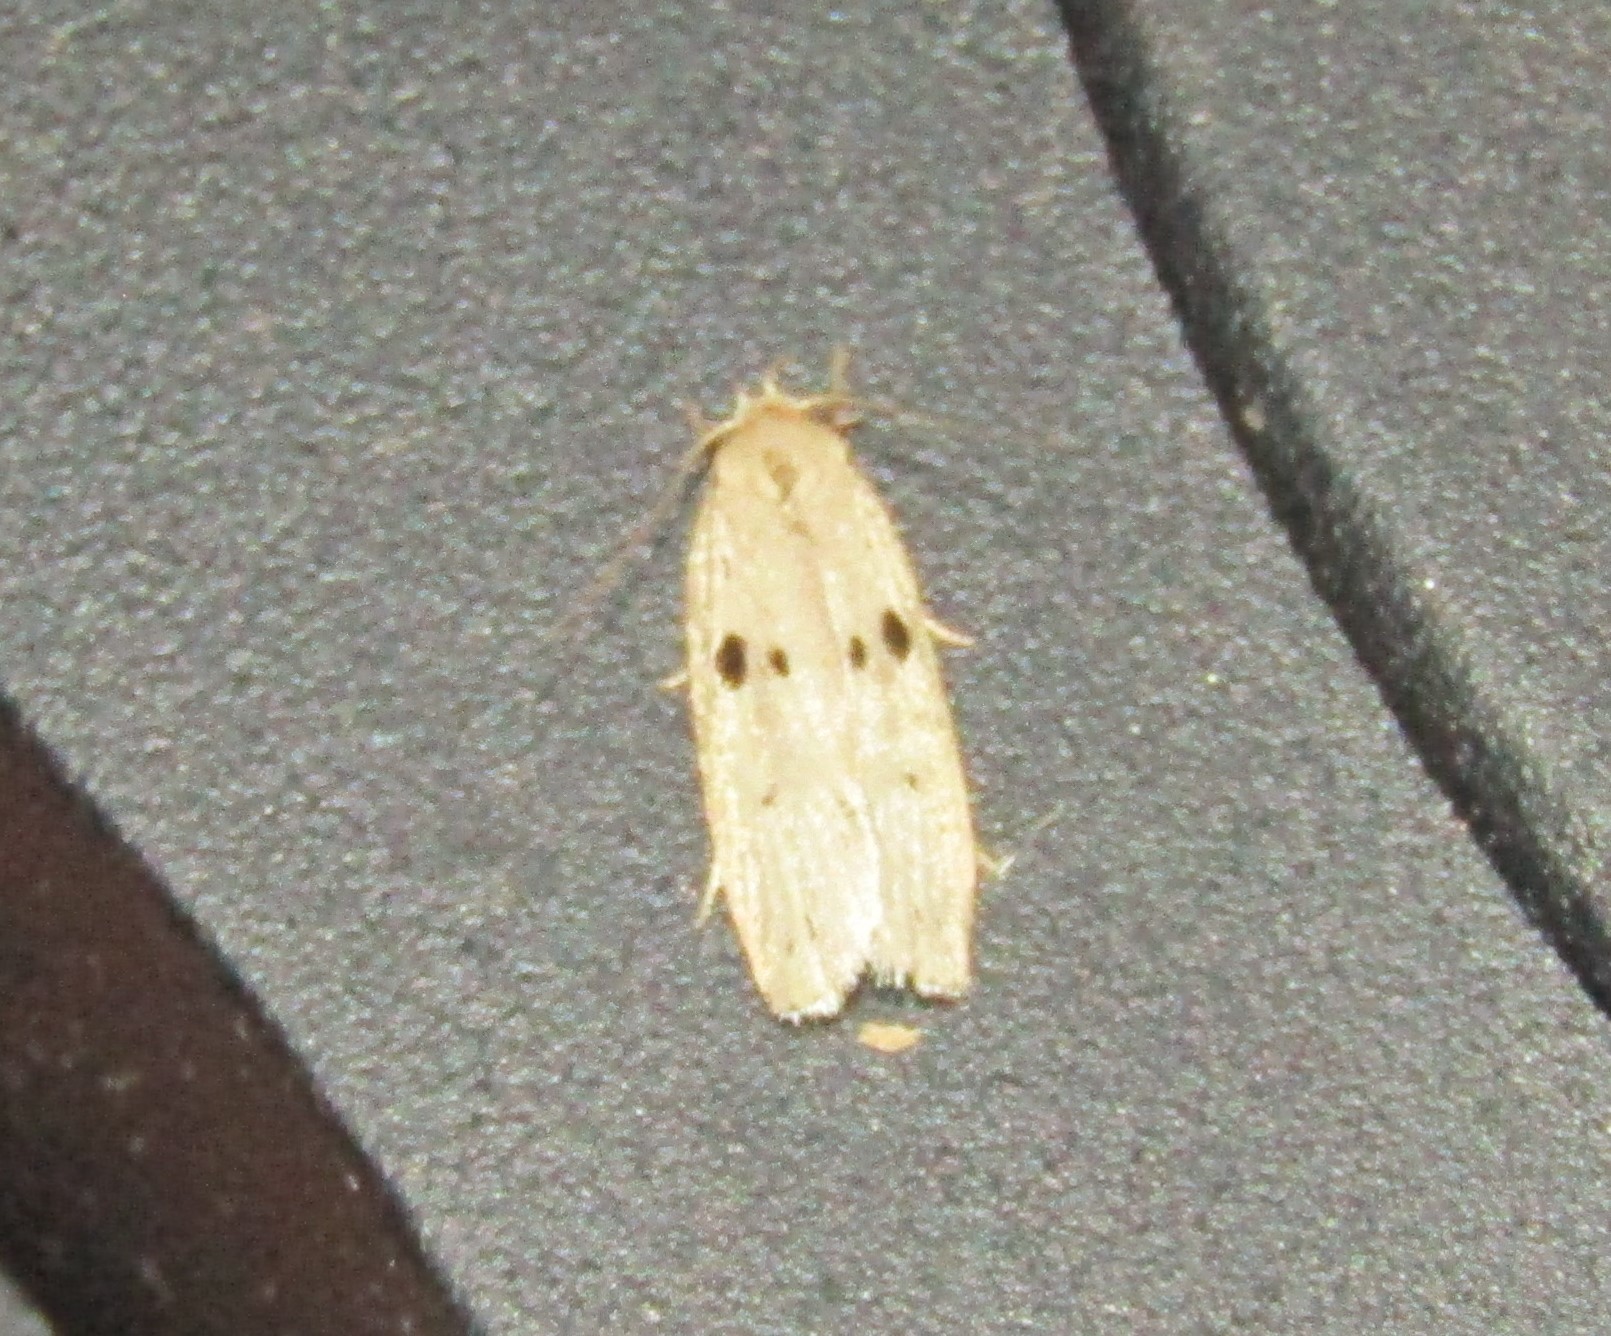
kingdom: Animalia
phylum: Arthropoda
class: Insecta
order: Lepidoptera
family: Peleopodidae
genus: Scythropiodes
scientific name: Scythropiodes issikii
